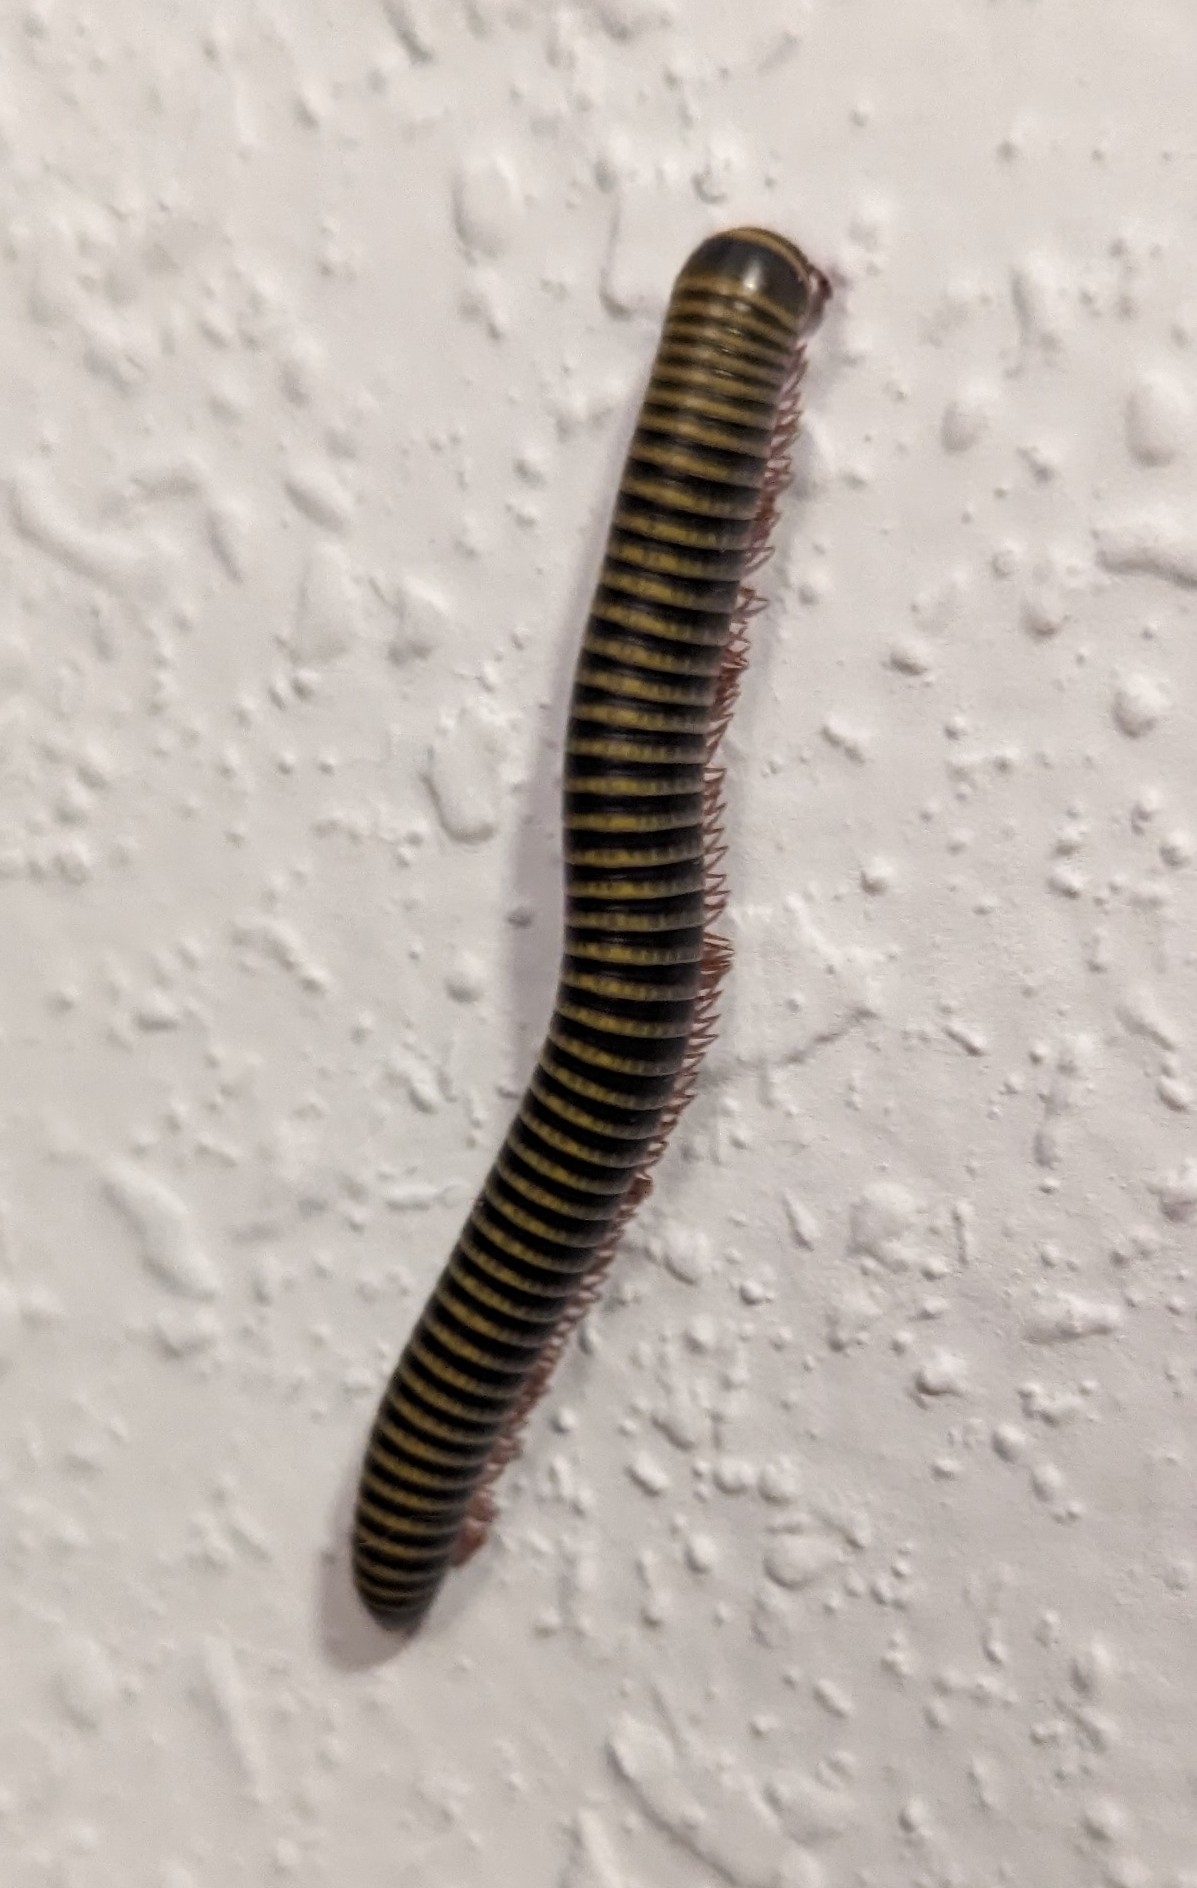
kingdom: Animalia
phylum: Arthropoda
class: Diplopoda
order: Spirobolida
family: Rhinocricidae
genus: Anadenobolus
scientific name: Anadenobolus monilicornis
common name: Caribbean millipede
